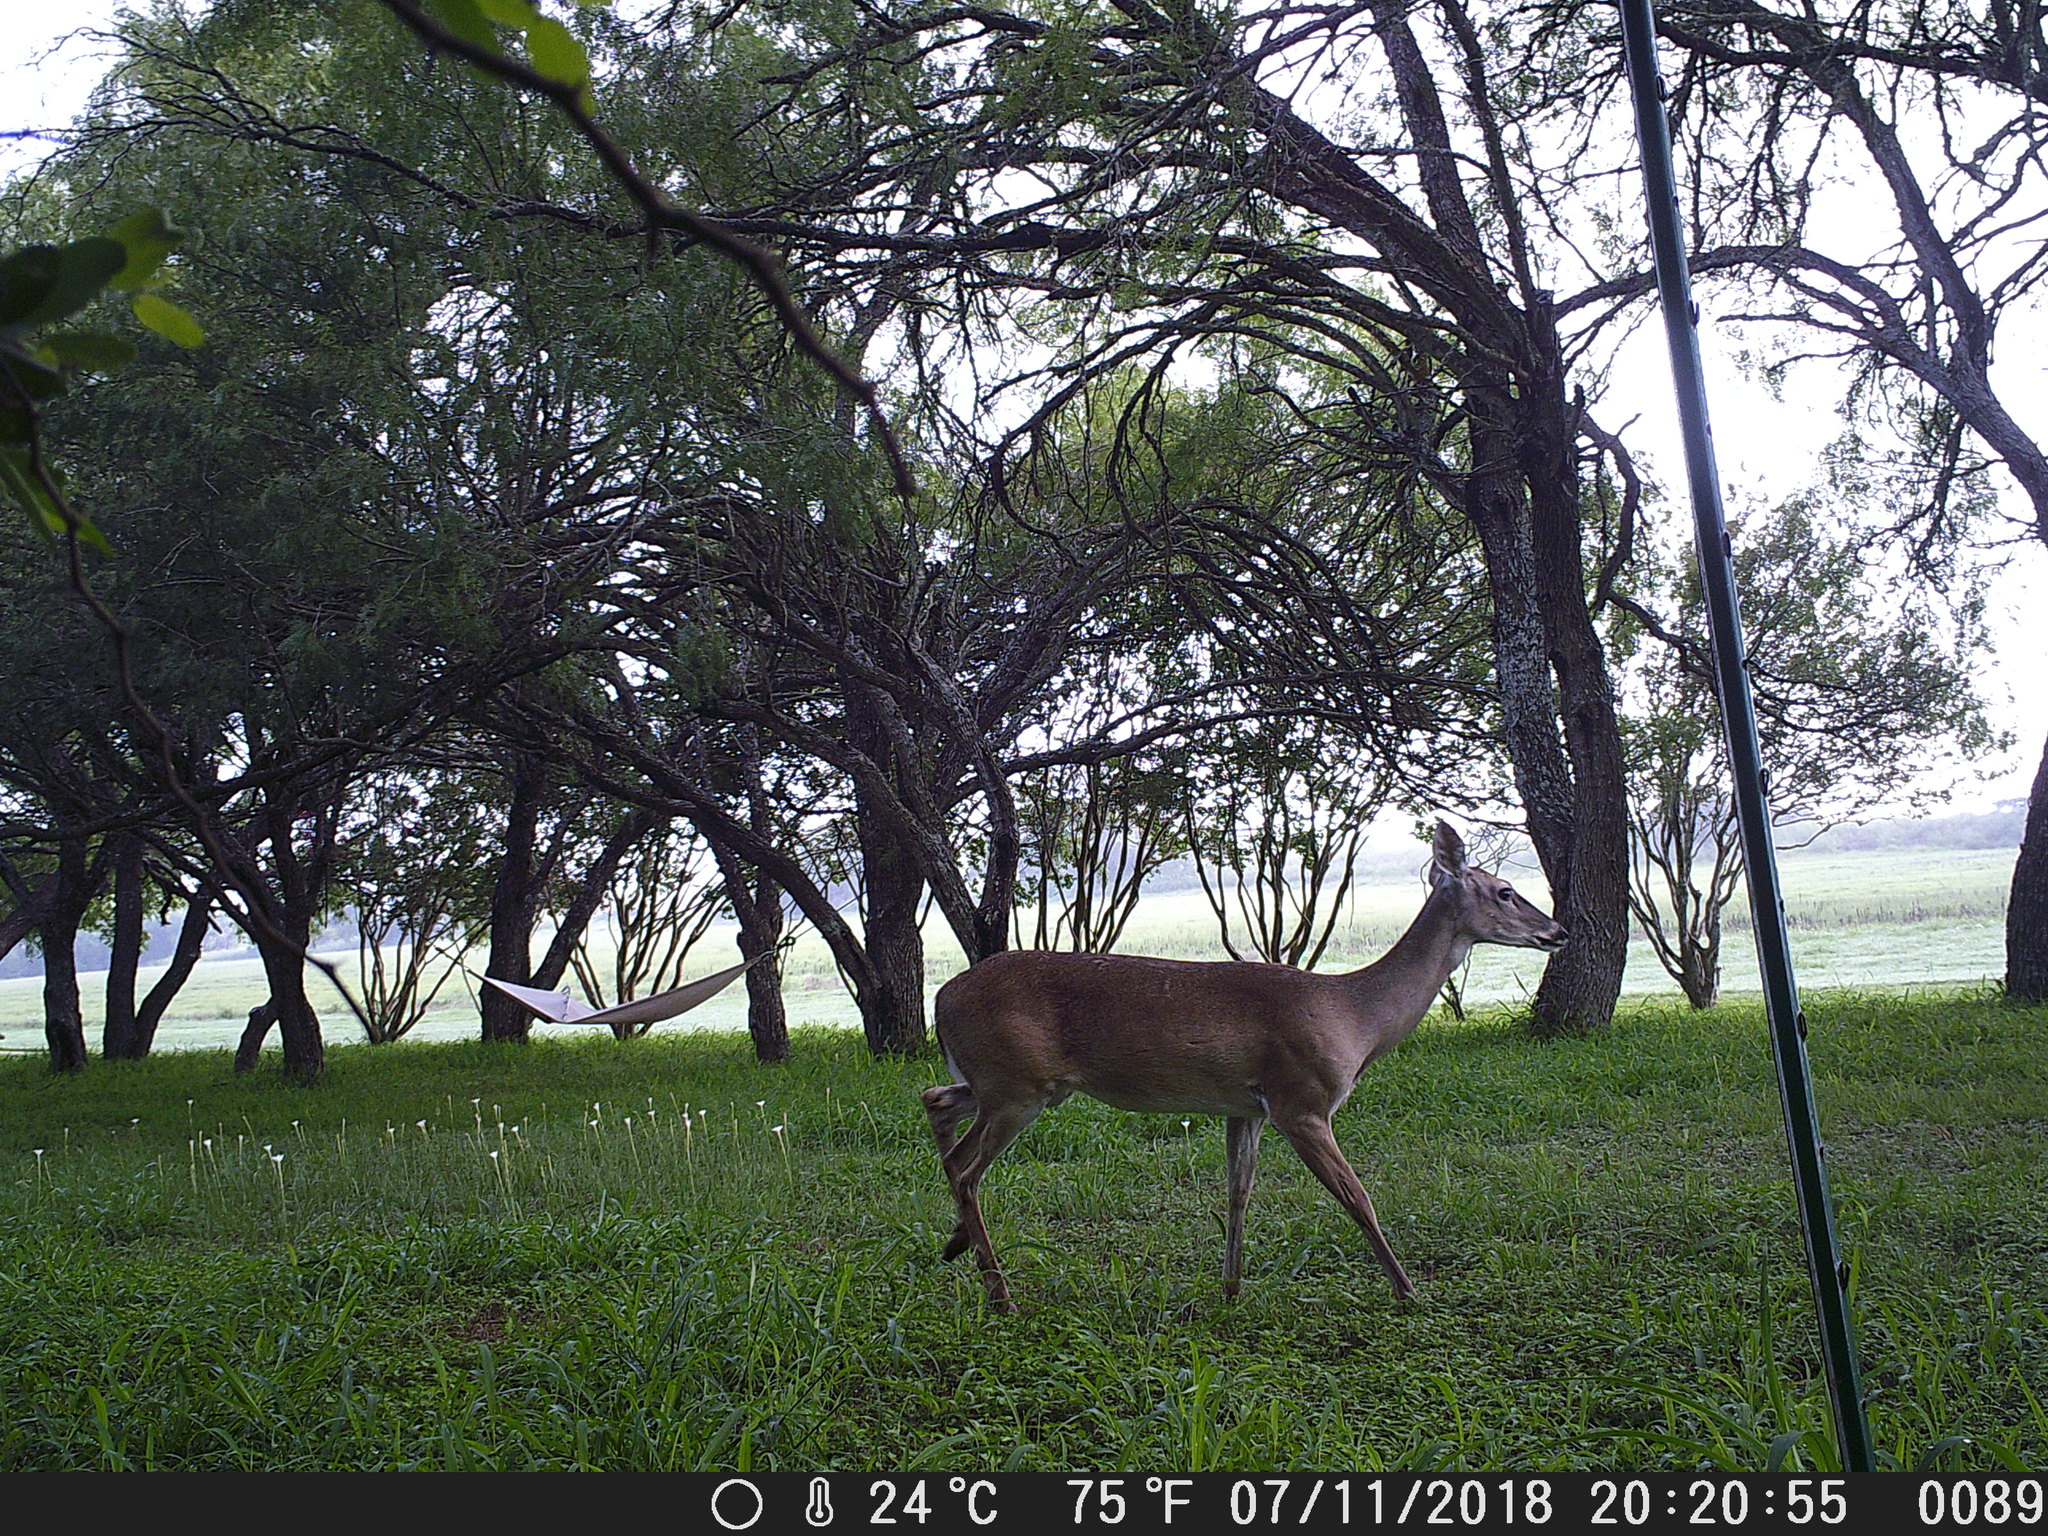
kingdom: Animalia
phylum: Chordata
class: Mammalia
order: Artiodactyla
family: Cervidae
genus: Odocoileus
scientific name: Odocoileus virginianus
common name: White-tailed deer
